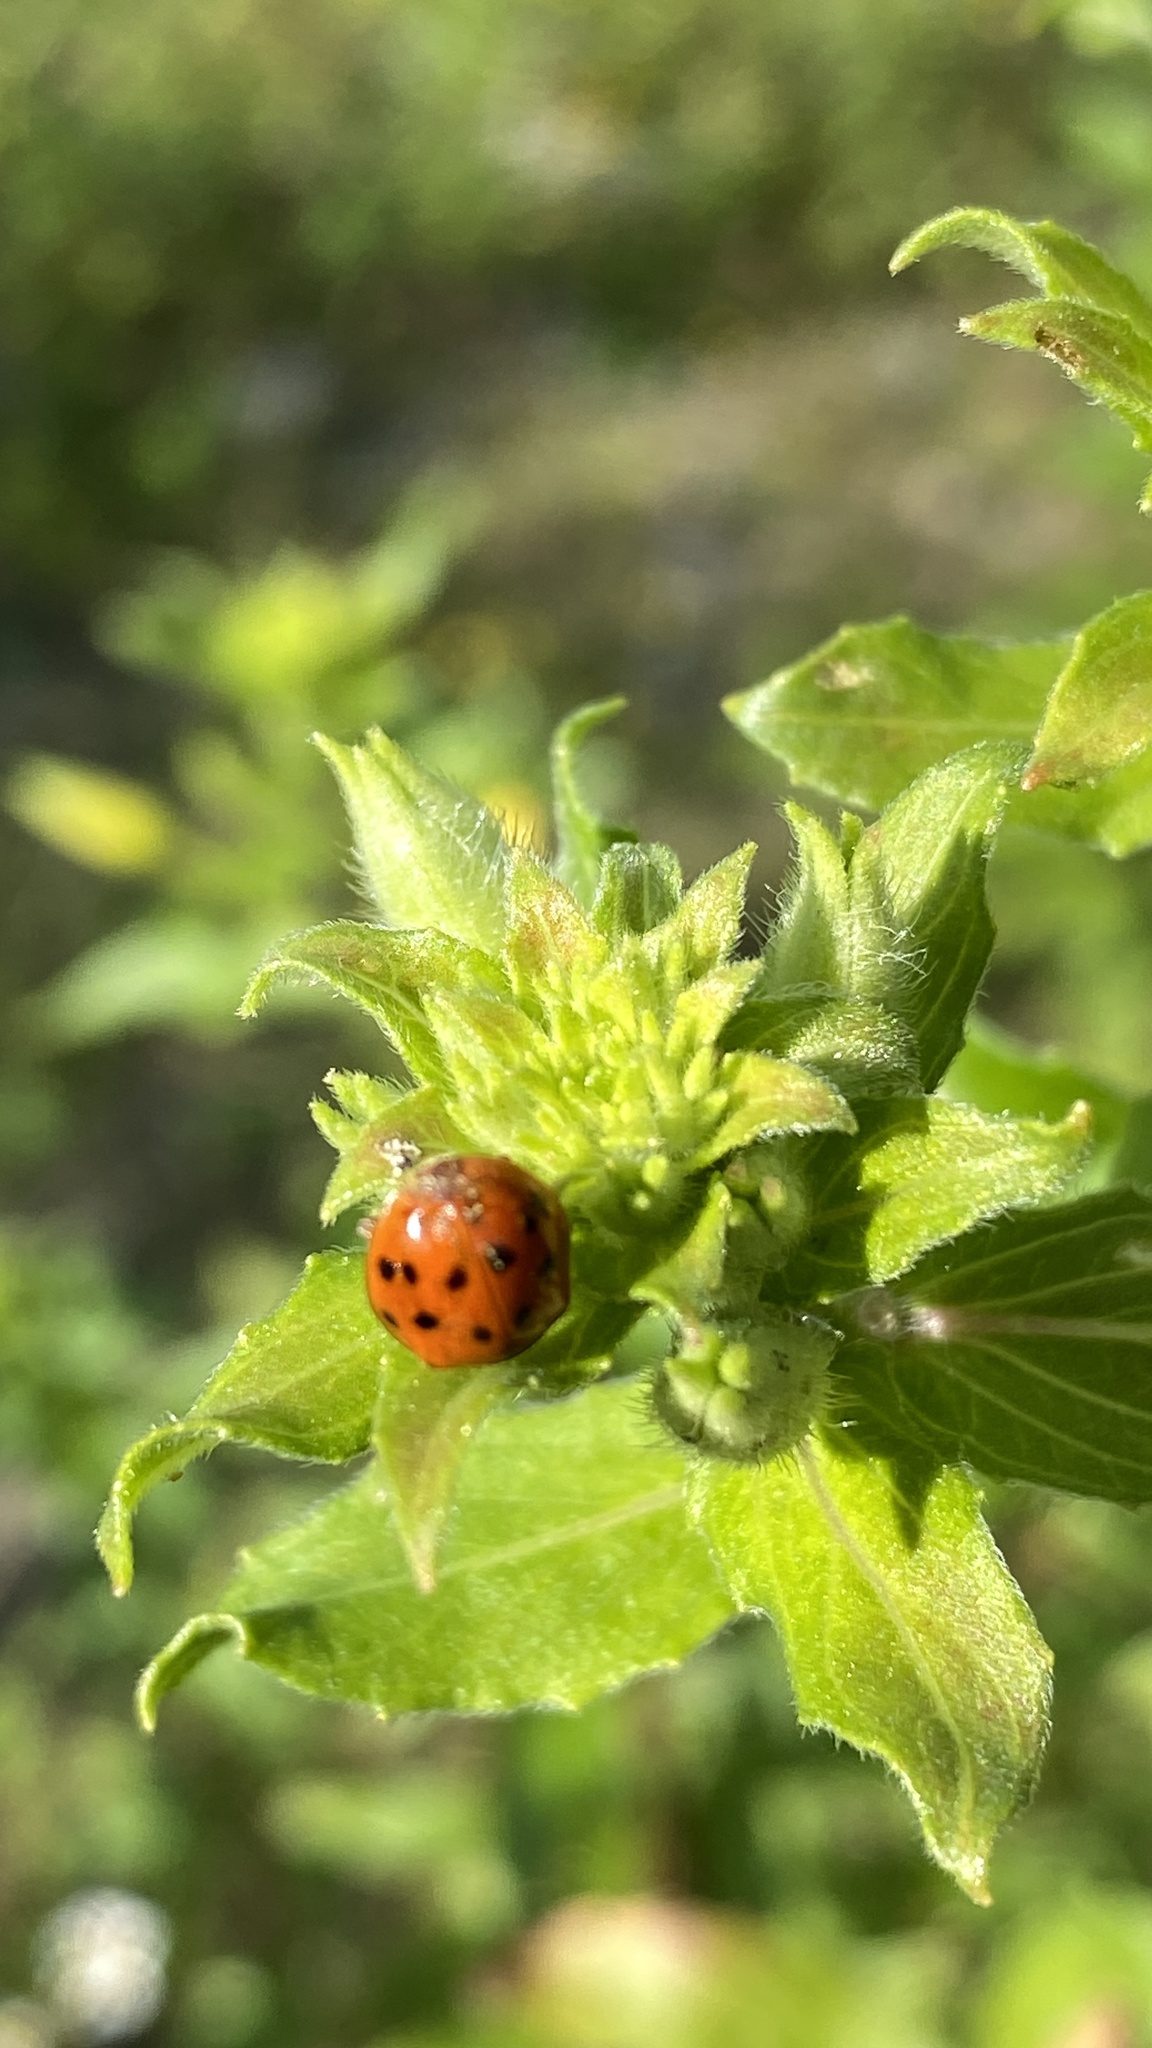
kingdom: Animalia
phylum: Arthropoda
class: Insecta
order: Coleoptera
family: Coccinellidae
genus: Harmonia
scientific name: Harmonia axyridis
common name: Harlequin ladybird
